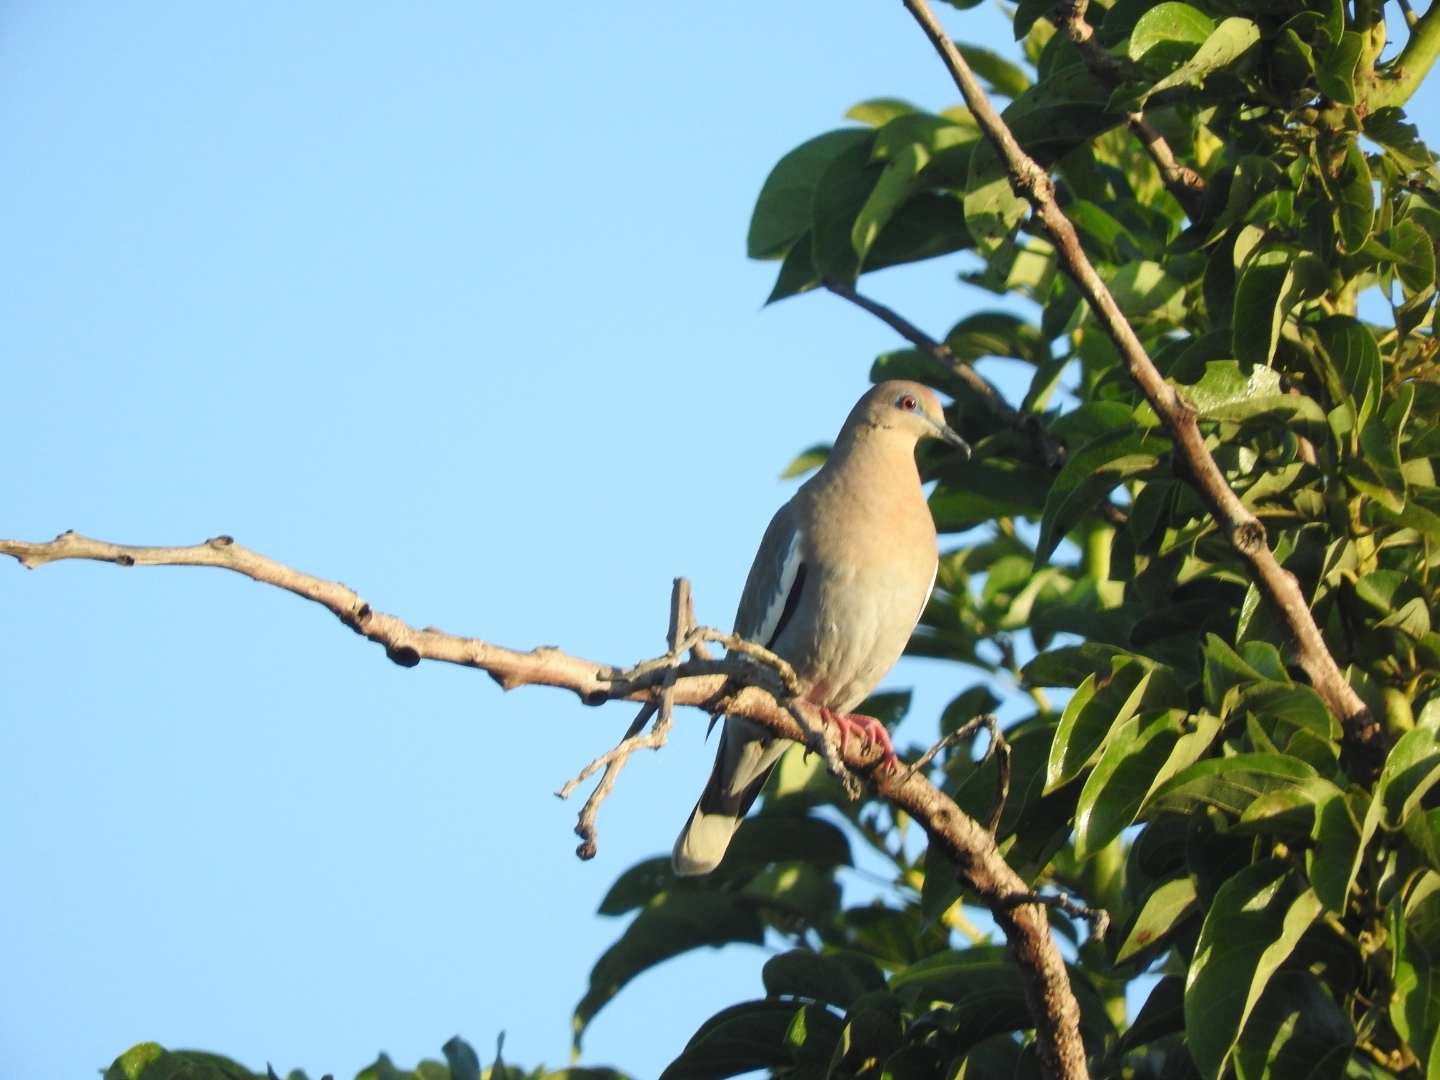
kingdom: Animalia
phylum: Chordata
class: Aves
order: Columbiformes
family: Columbidae
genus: Zenaida
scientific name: Zenaida asiatica
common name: White-winged dove
